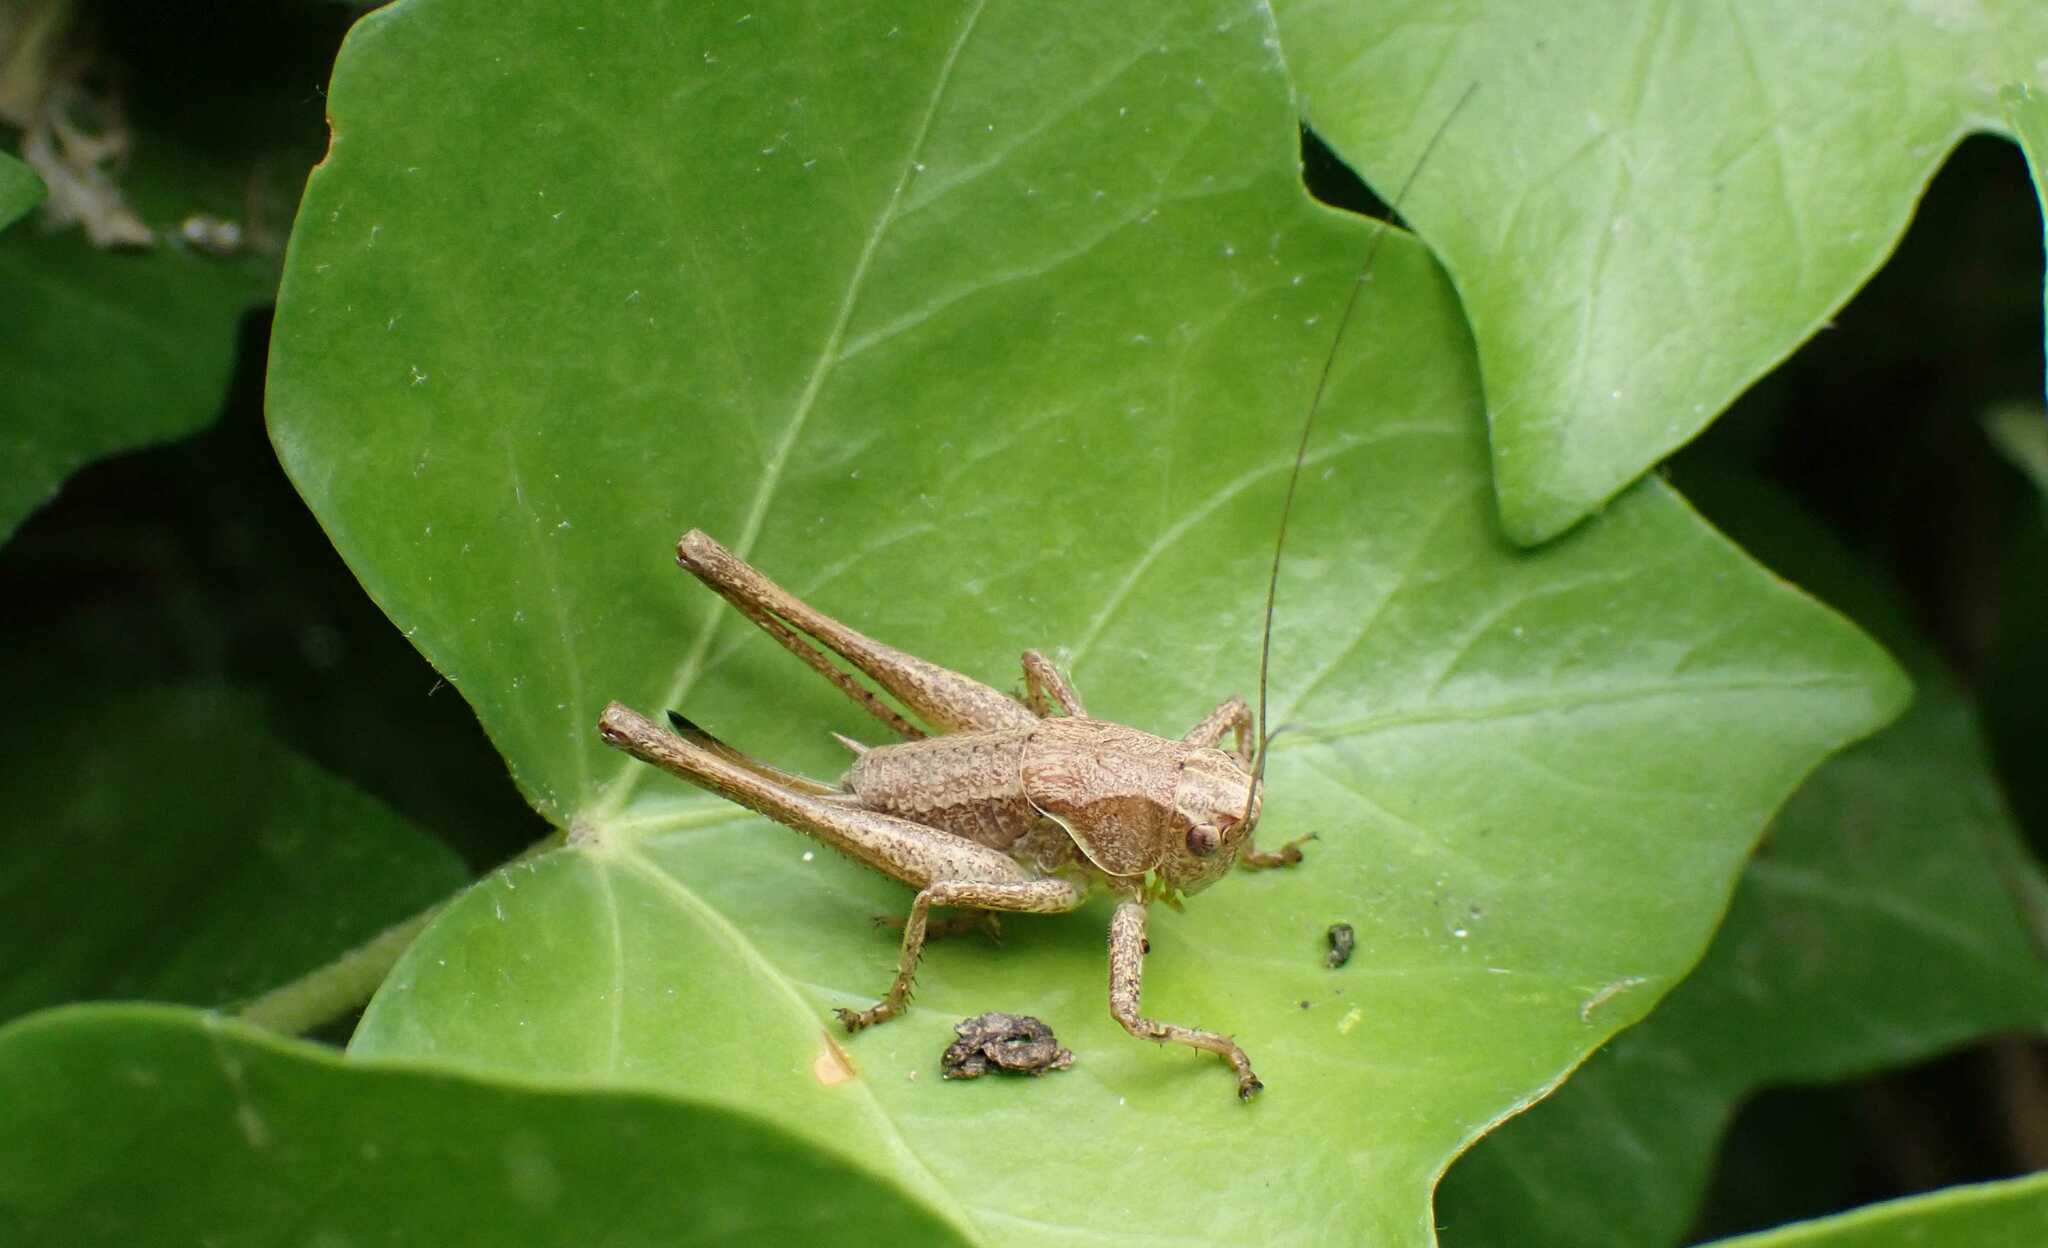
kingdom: Animalia
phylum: Arthropoda
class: Insecta
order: Orthoptera
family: Tettigoniidae
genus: Pholidoptera
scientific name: Pholidoptera griseoaptera
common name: Dark bush-cricket
